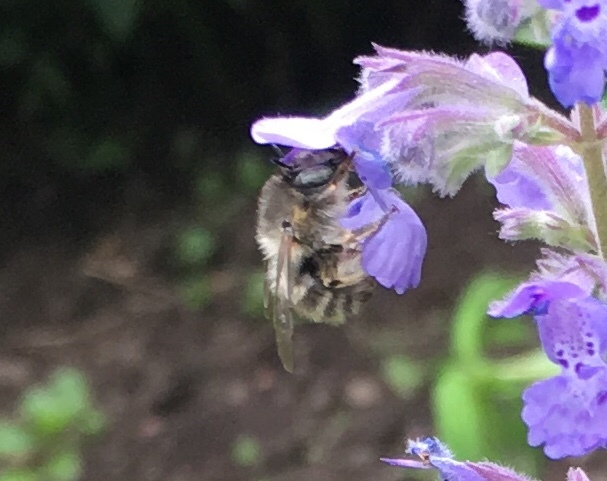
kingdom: Animalia
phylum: Arthropoda
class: Insecta
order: Hymenoptera
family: Apidae
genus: Anthophora
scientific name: Anthophora quadrimaculata
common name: Four-banded flower bee
